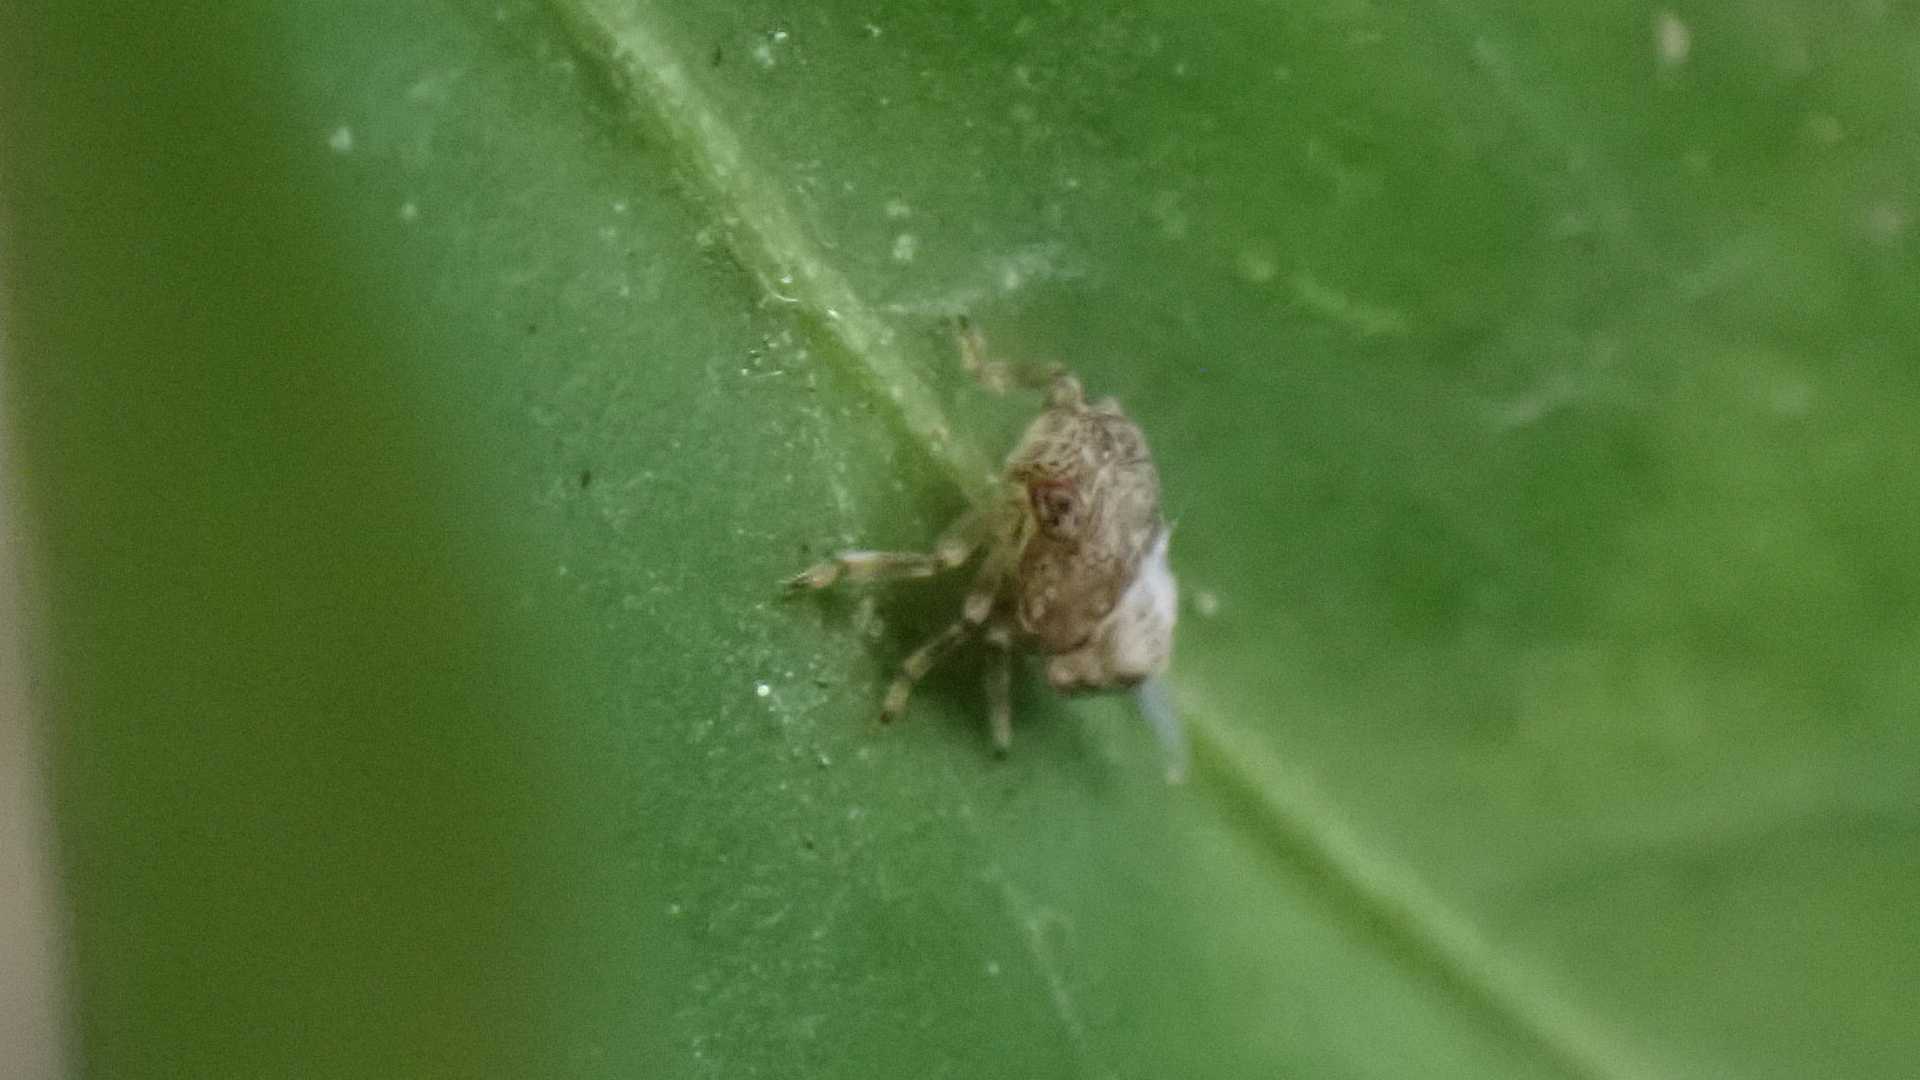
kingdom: Animalia
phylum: Arthropoda
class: Insecta
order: Hemiptera
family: Issidae
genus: Issus
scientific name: Issus coleoptratus
